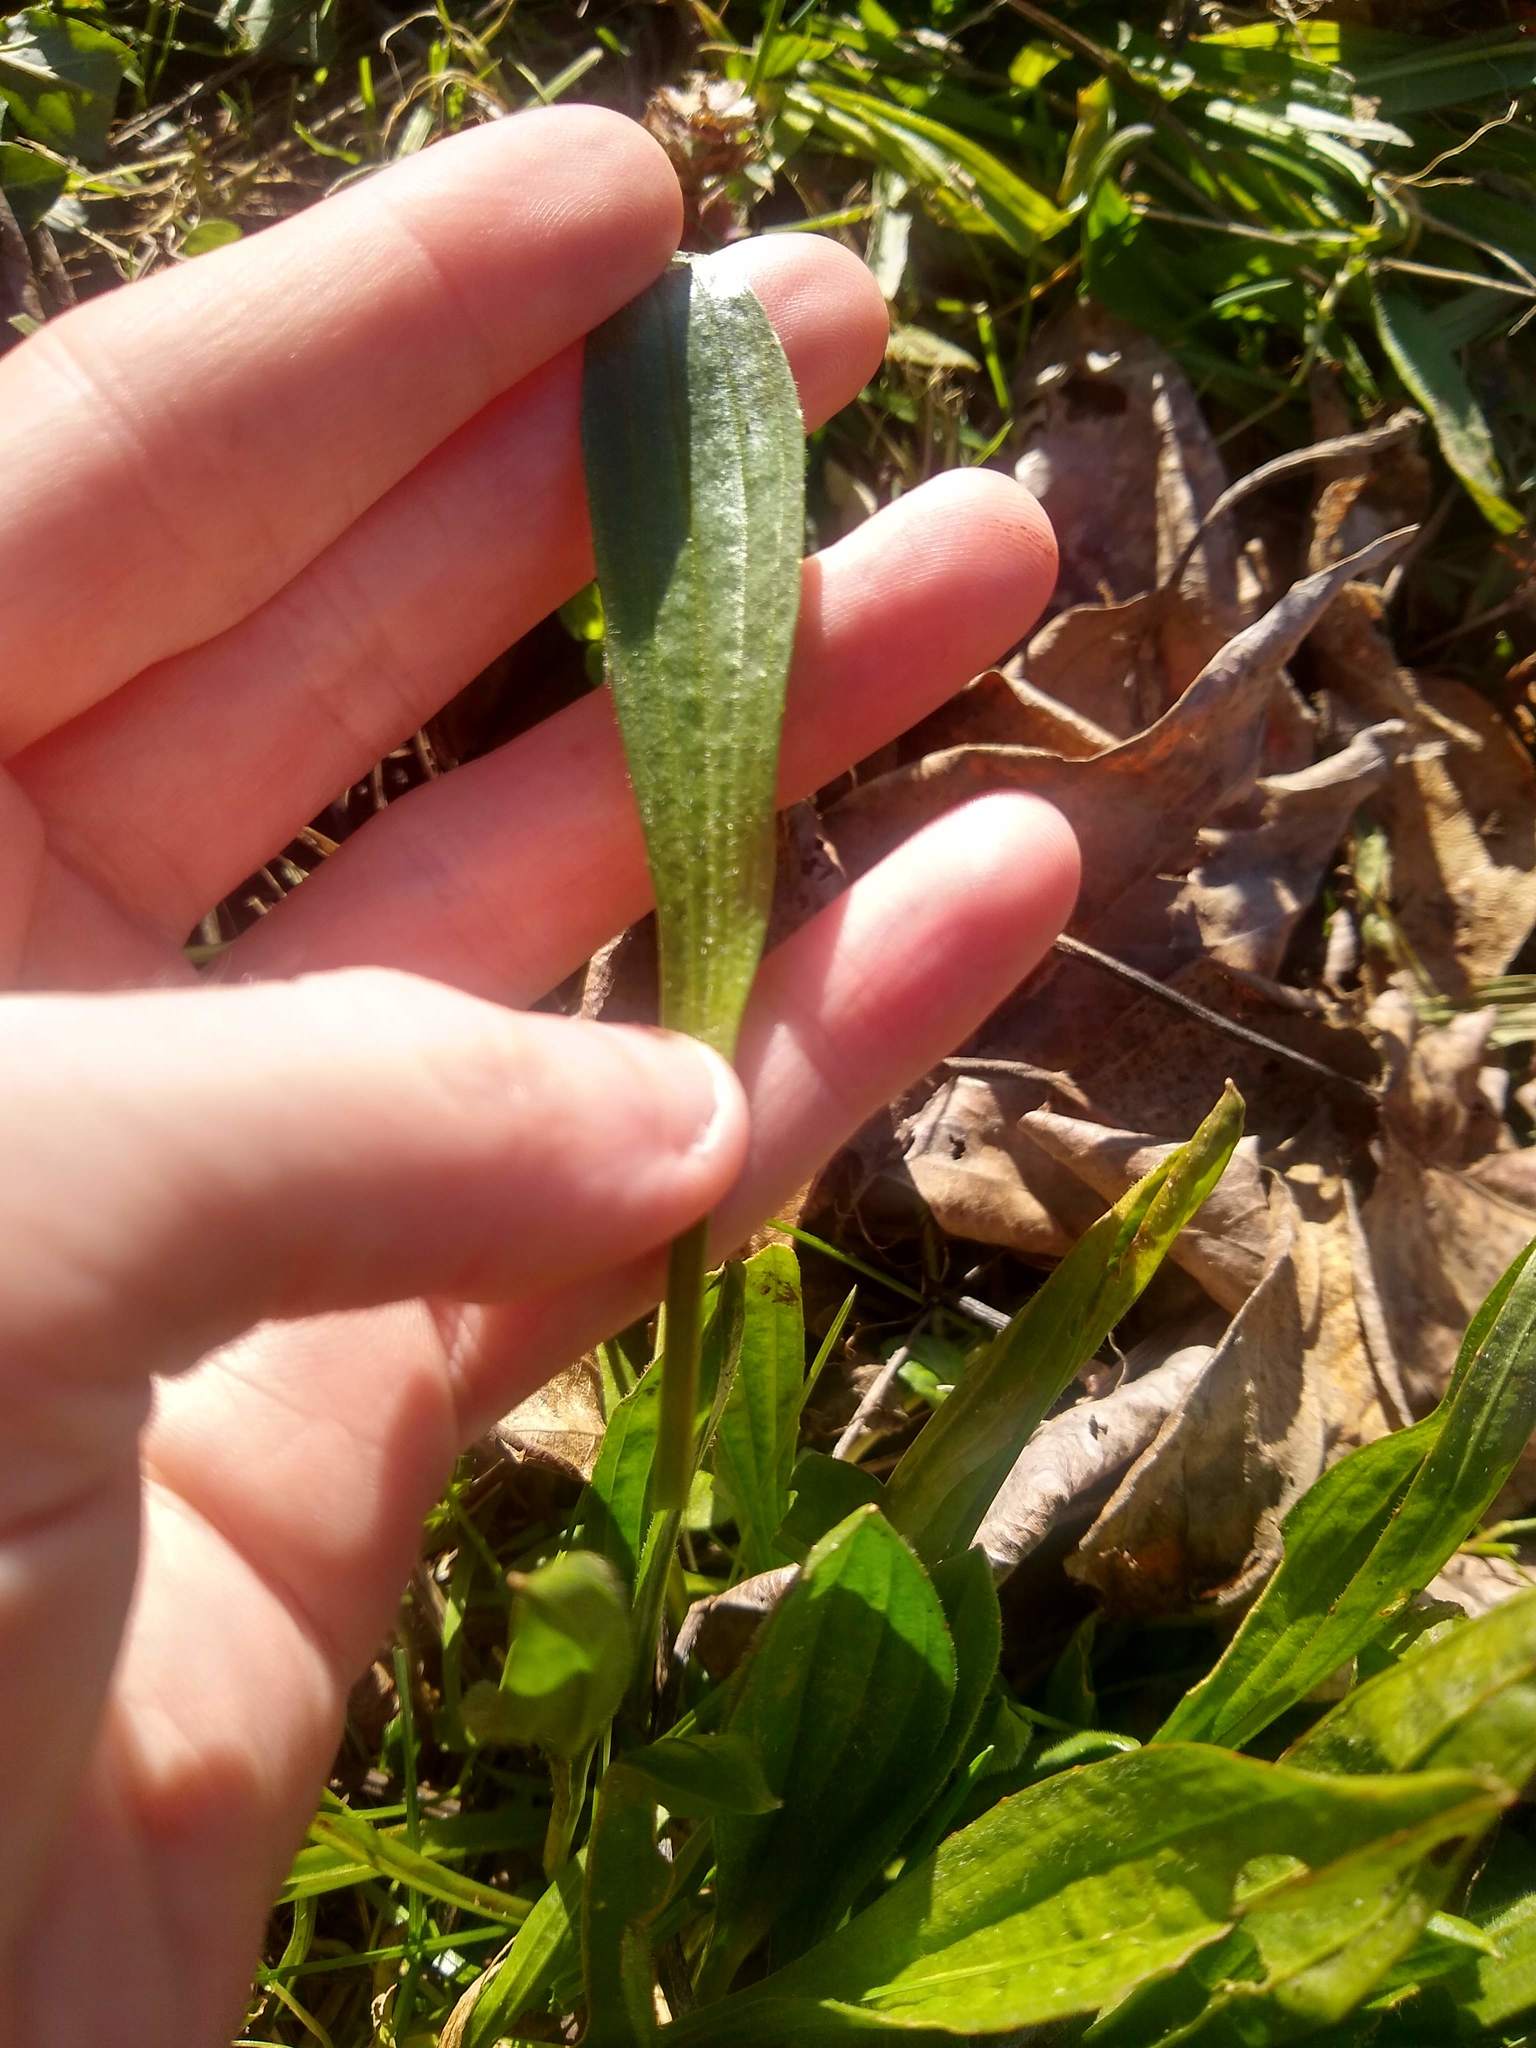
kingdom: Plantae
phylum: Tracheophyta
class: Magnoliopsida
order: Lamiales
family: Plantaginaceae
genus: Plantago
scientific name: Plantago lanceolata
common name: Ribwort plantain
